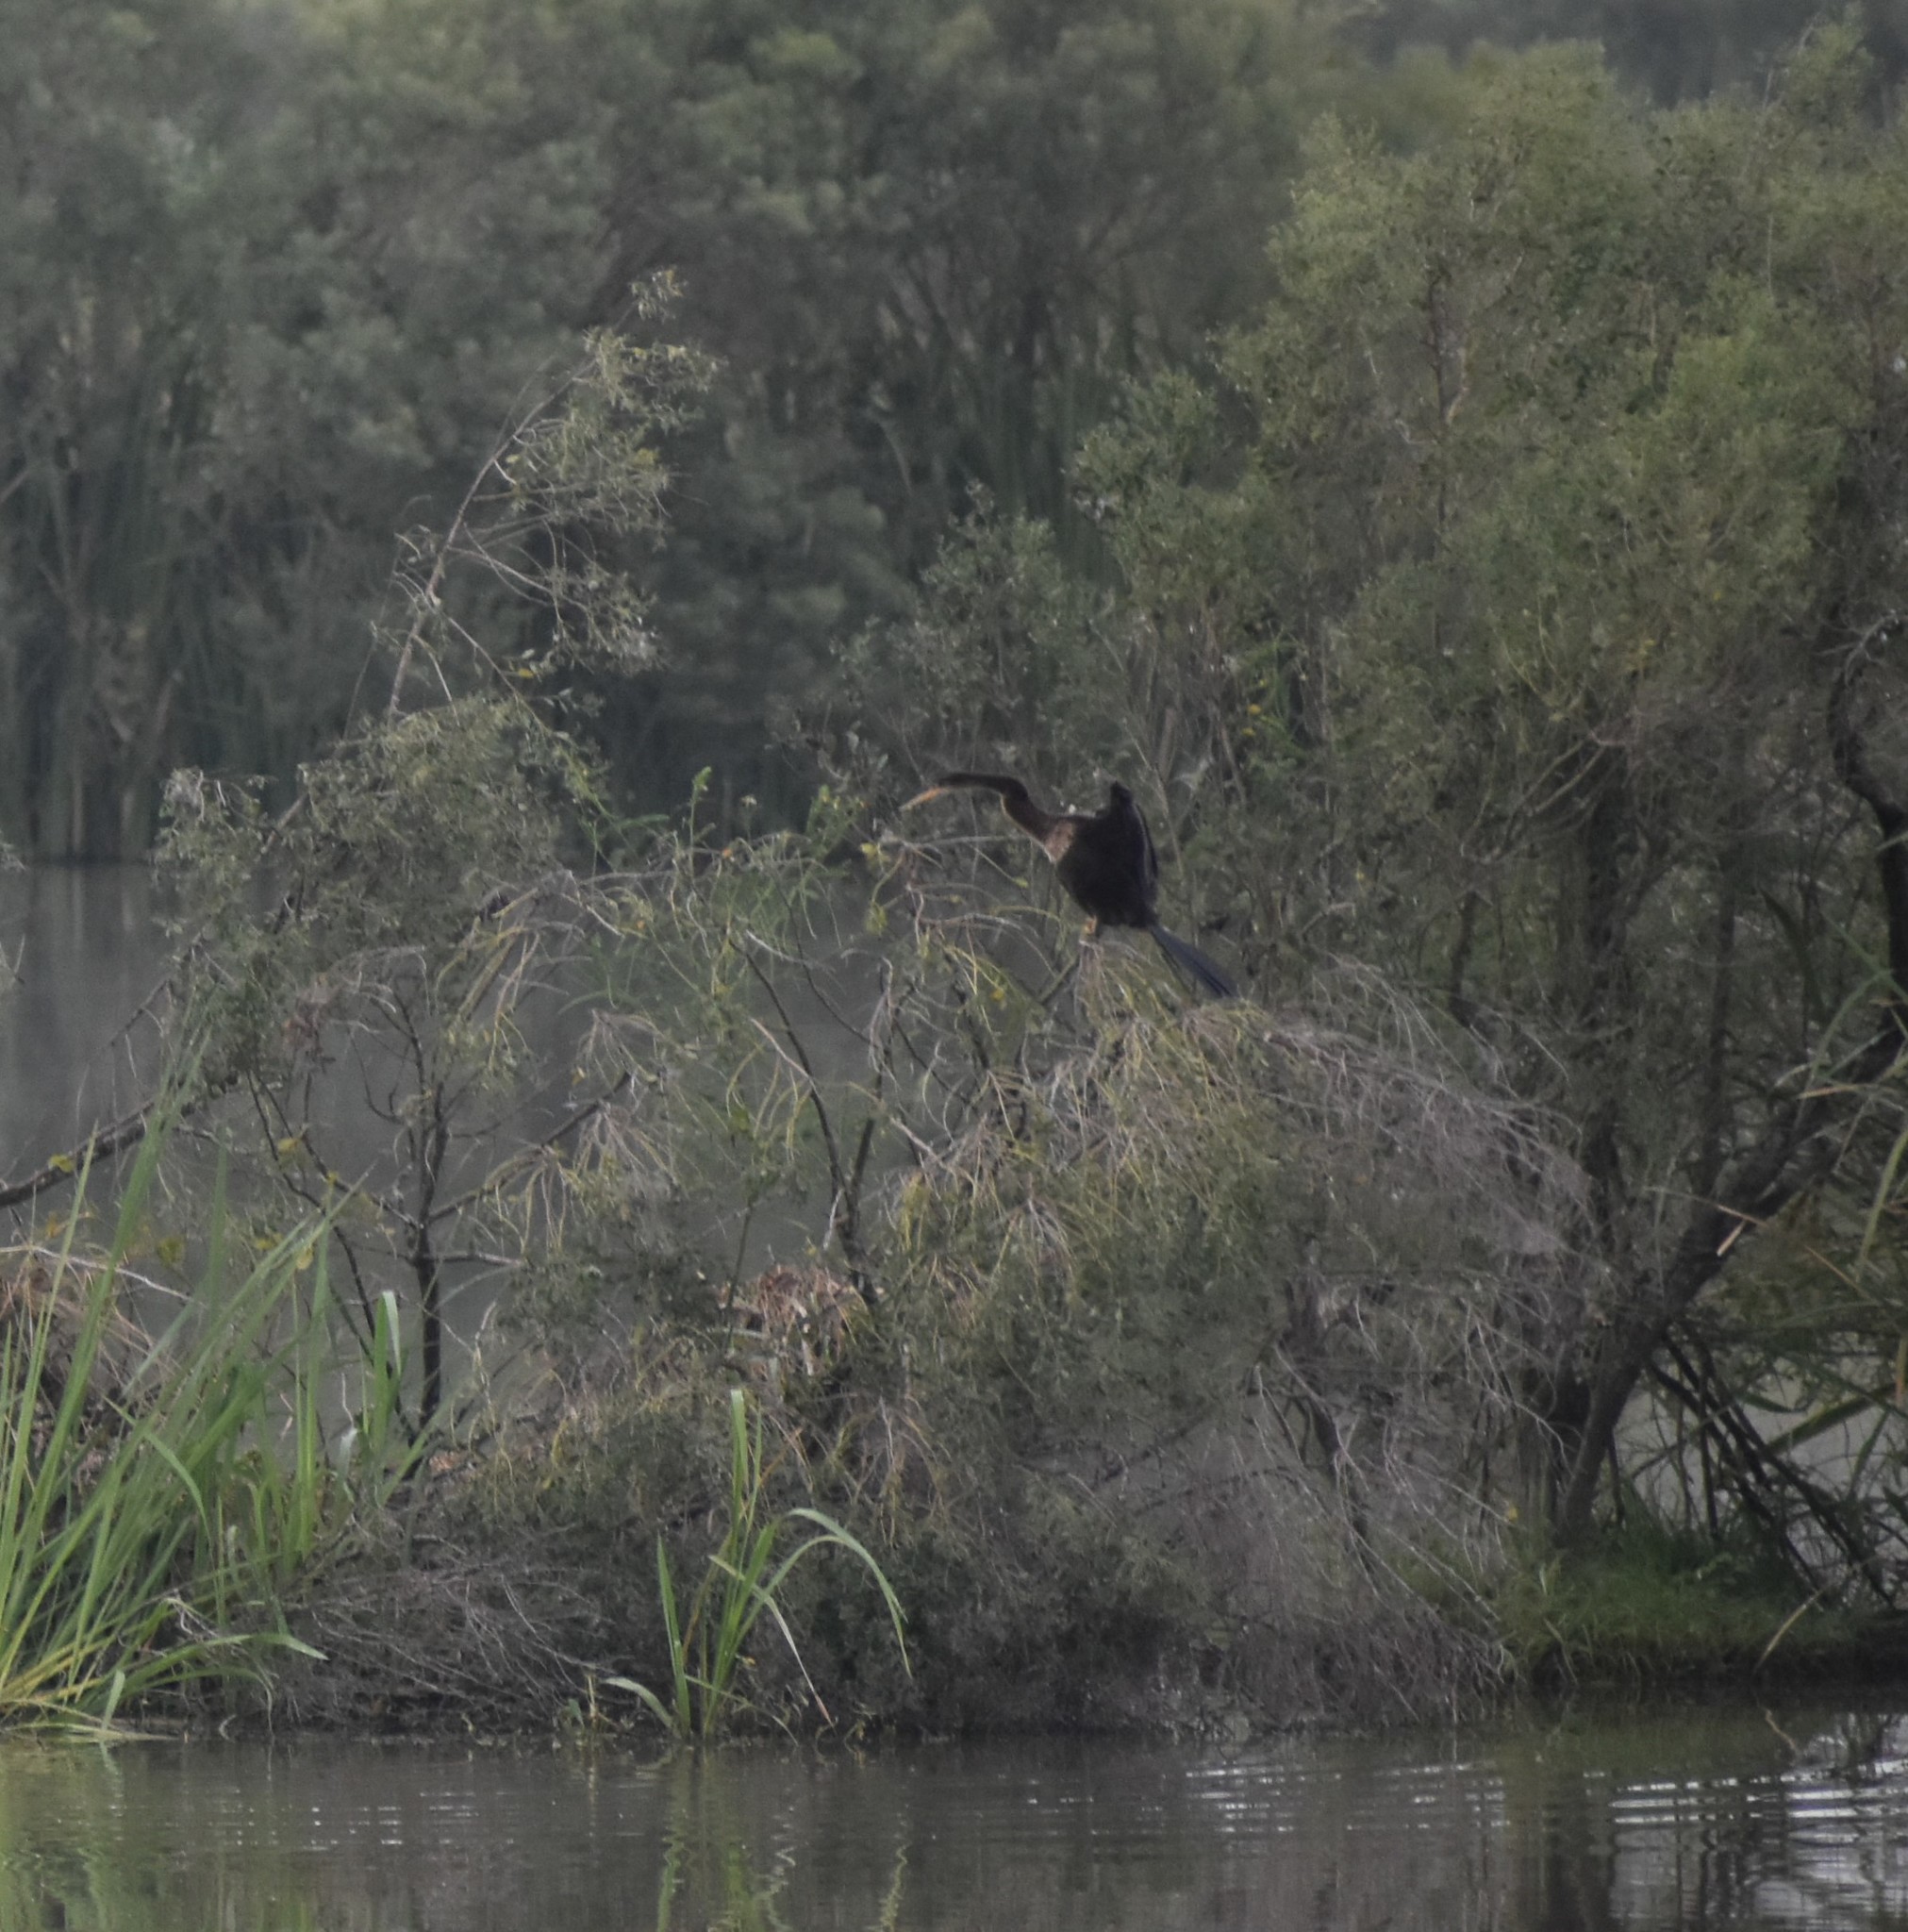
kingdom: Animalia
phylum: Chordata
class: Aves
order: Suliformes
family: Anhingidae
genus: Anhinga
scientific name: Anhinga anhinga
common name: Anhinga
